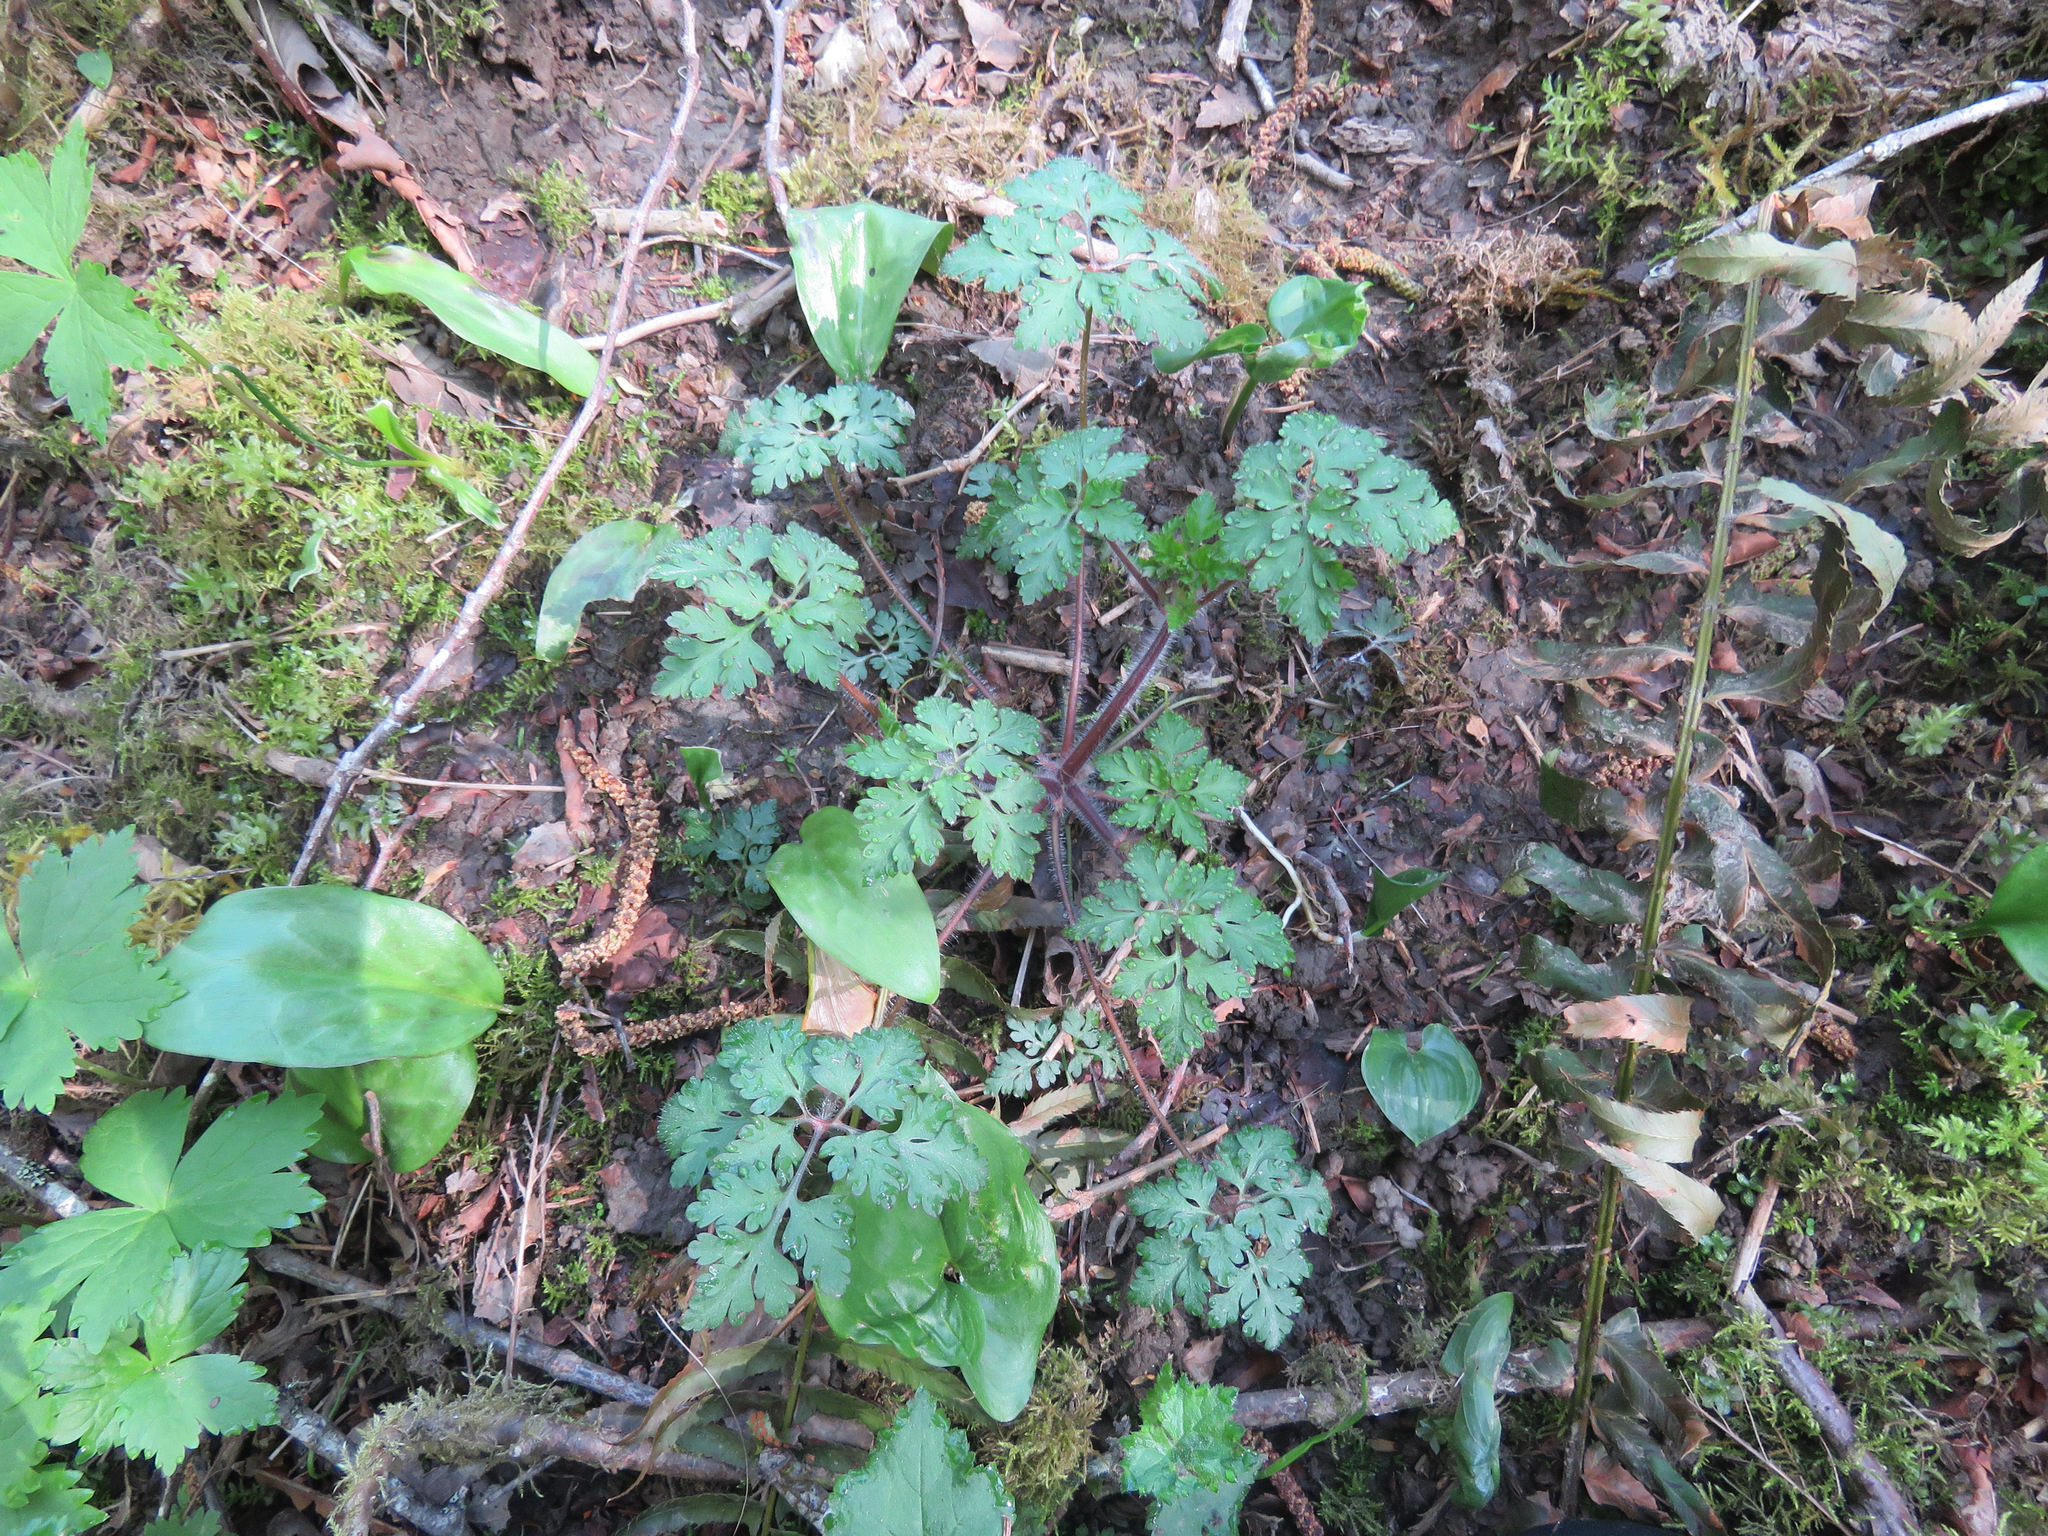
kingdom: Plantae
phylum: Tracheophyta
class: Magnoliopsida
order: Geraniales
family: Geraniaceae
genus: Geranium
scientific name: Geranium robertianum
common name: Herb-robert
